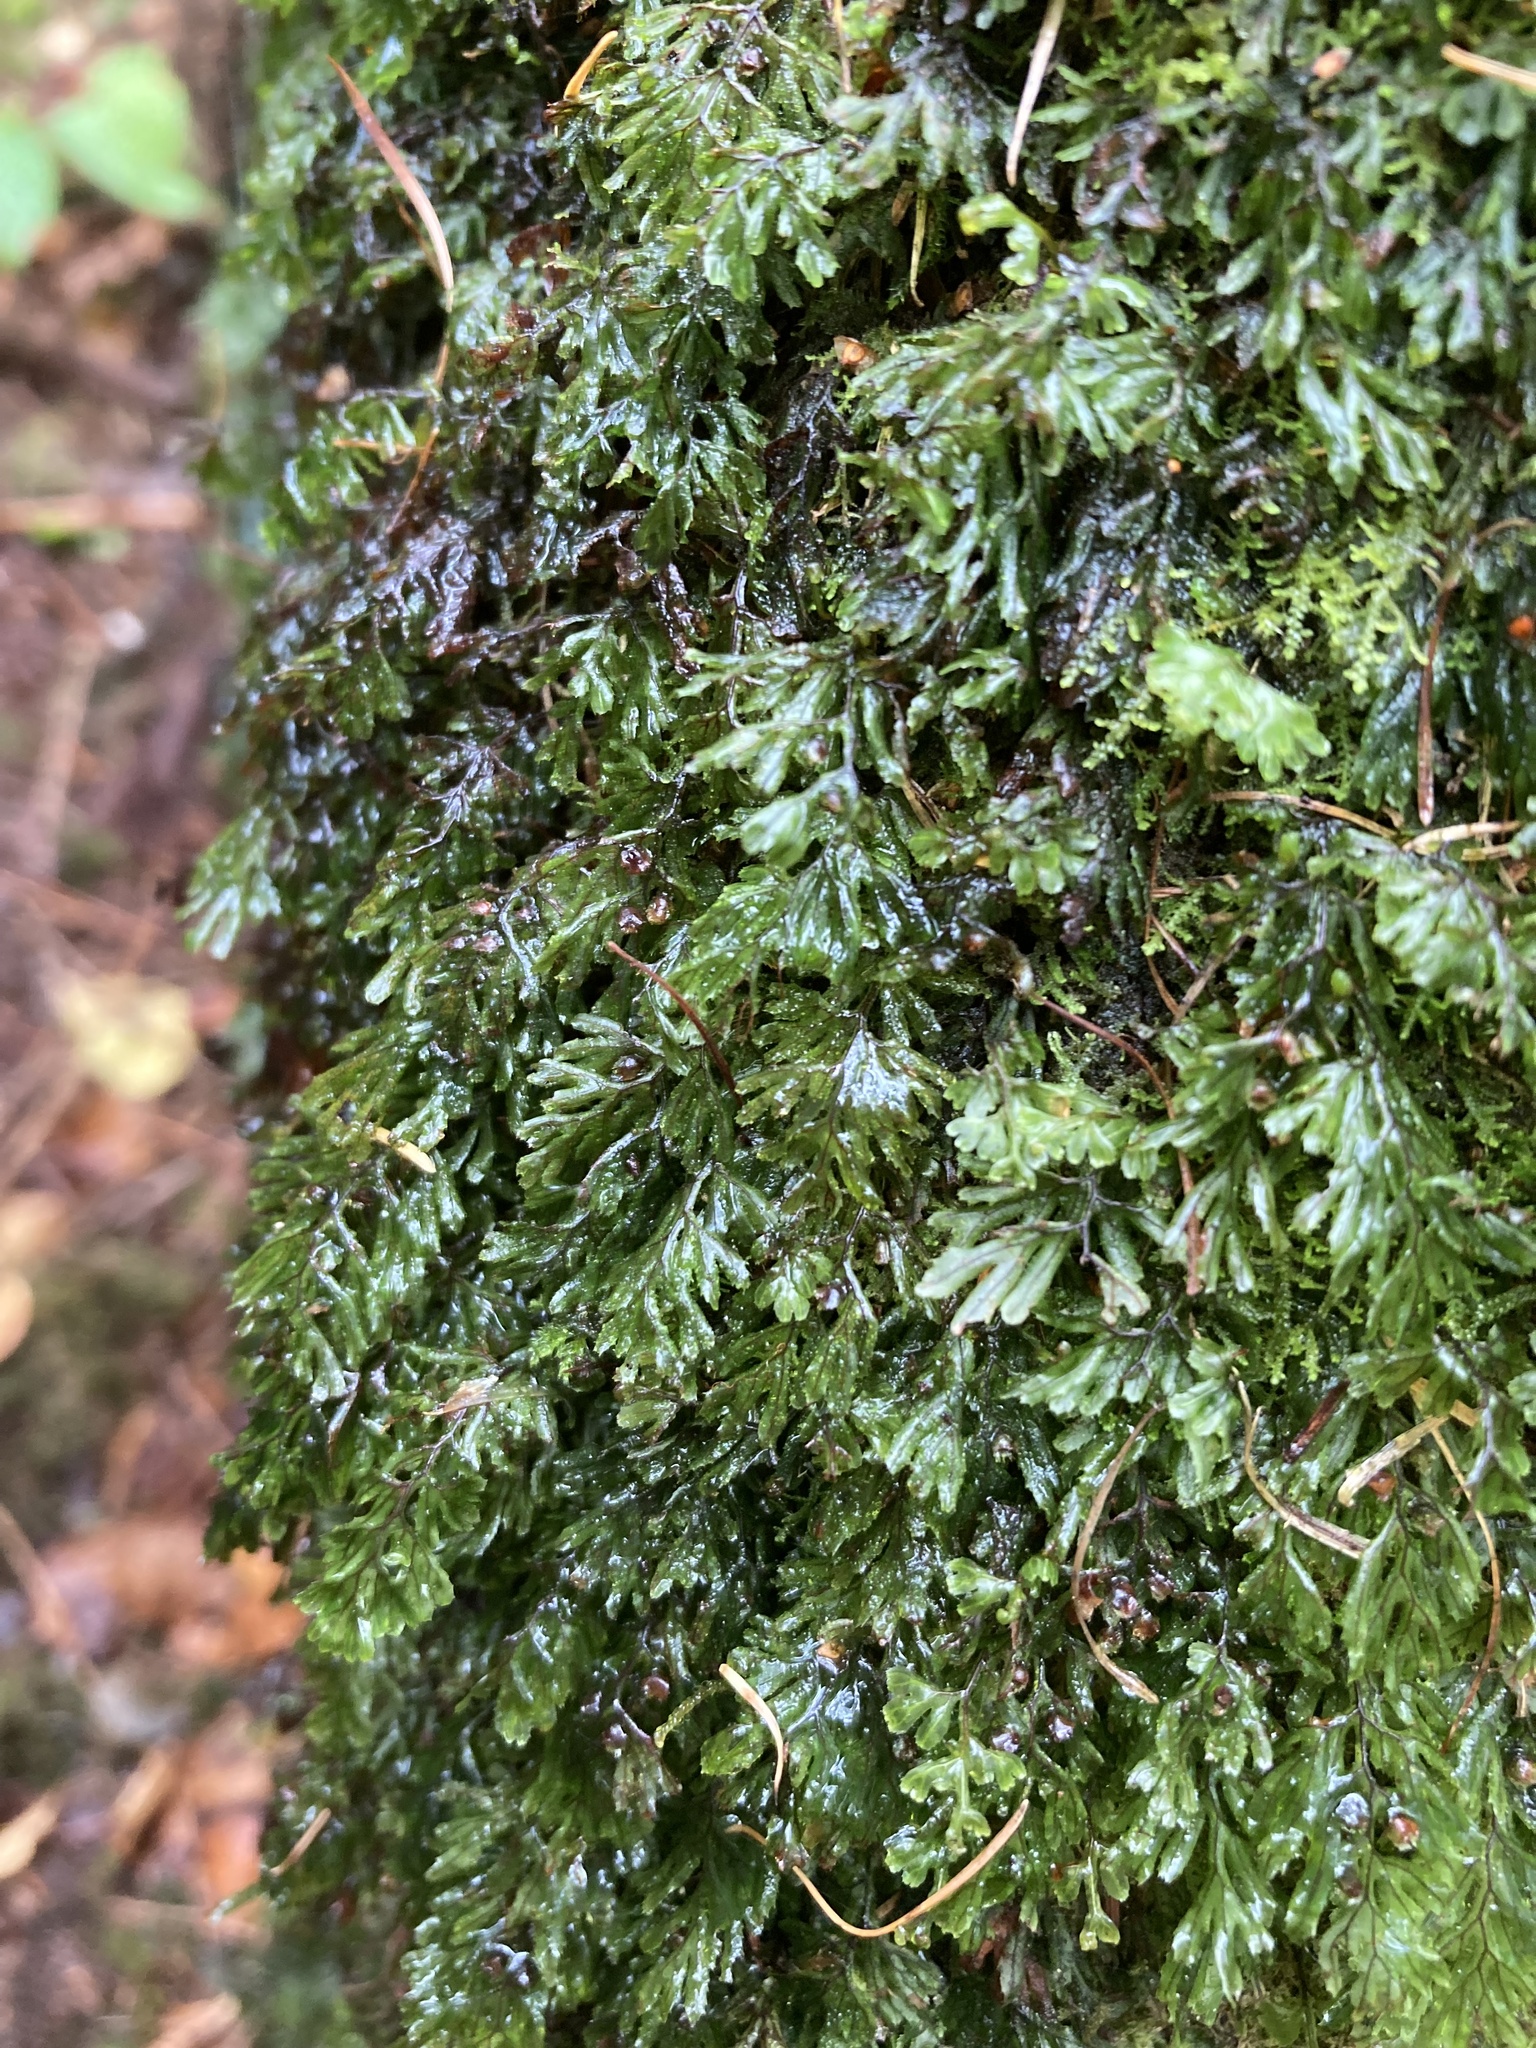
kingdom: Plantae
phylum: Tracheophyta
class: Polypodiopsida
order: Hymenophyllales
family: Hymenophyllaceae
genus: Hymenophyllum
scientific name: Hymenophyllum tunbrigense
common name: Tunbridge filmy fern
